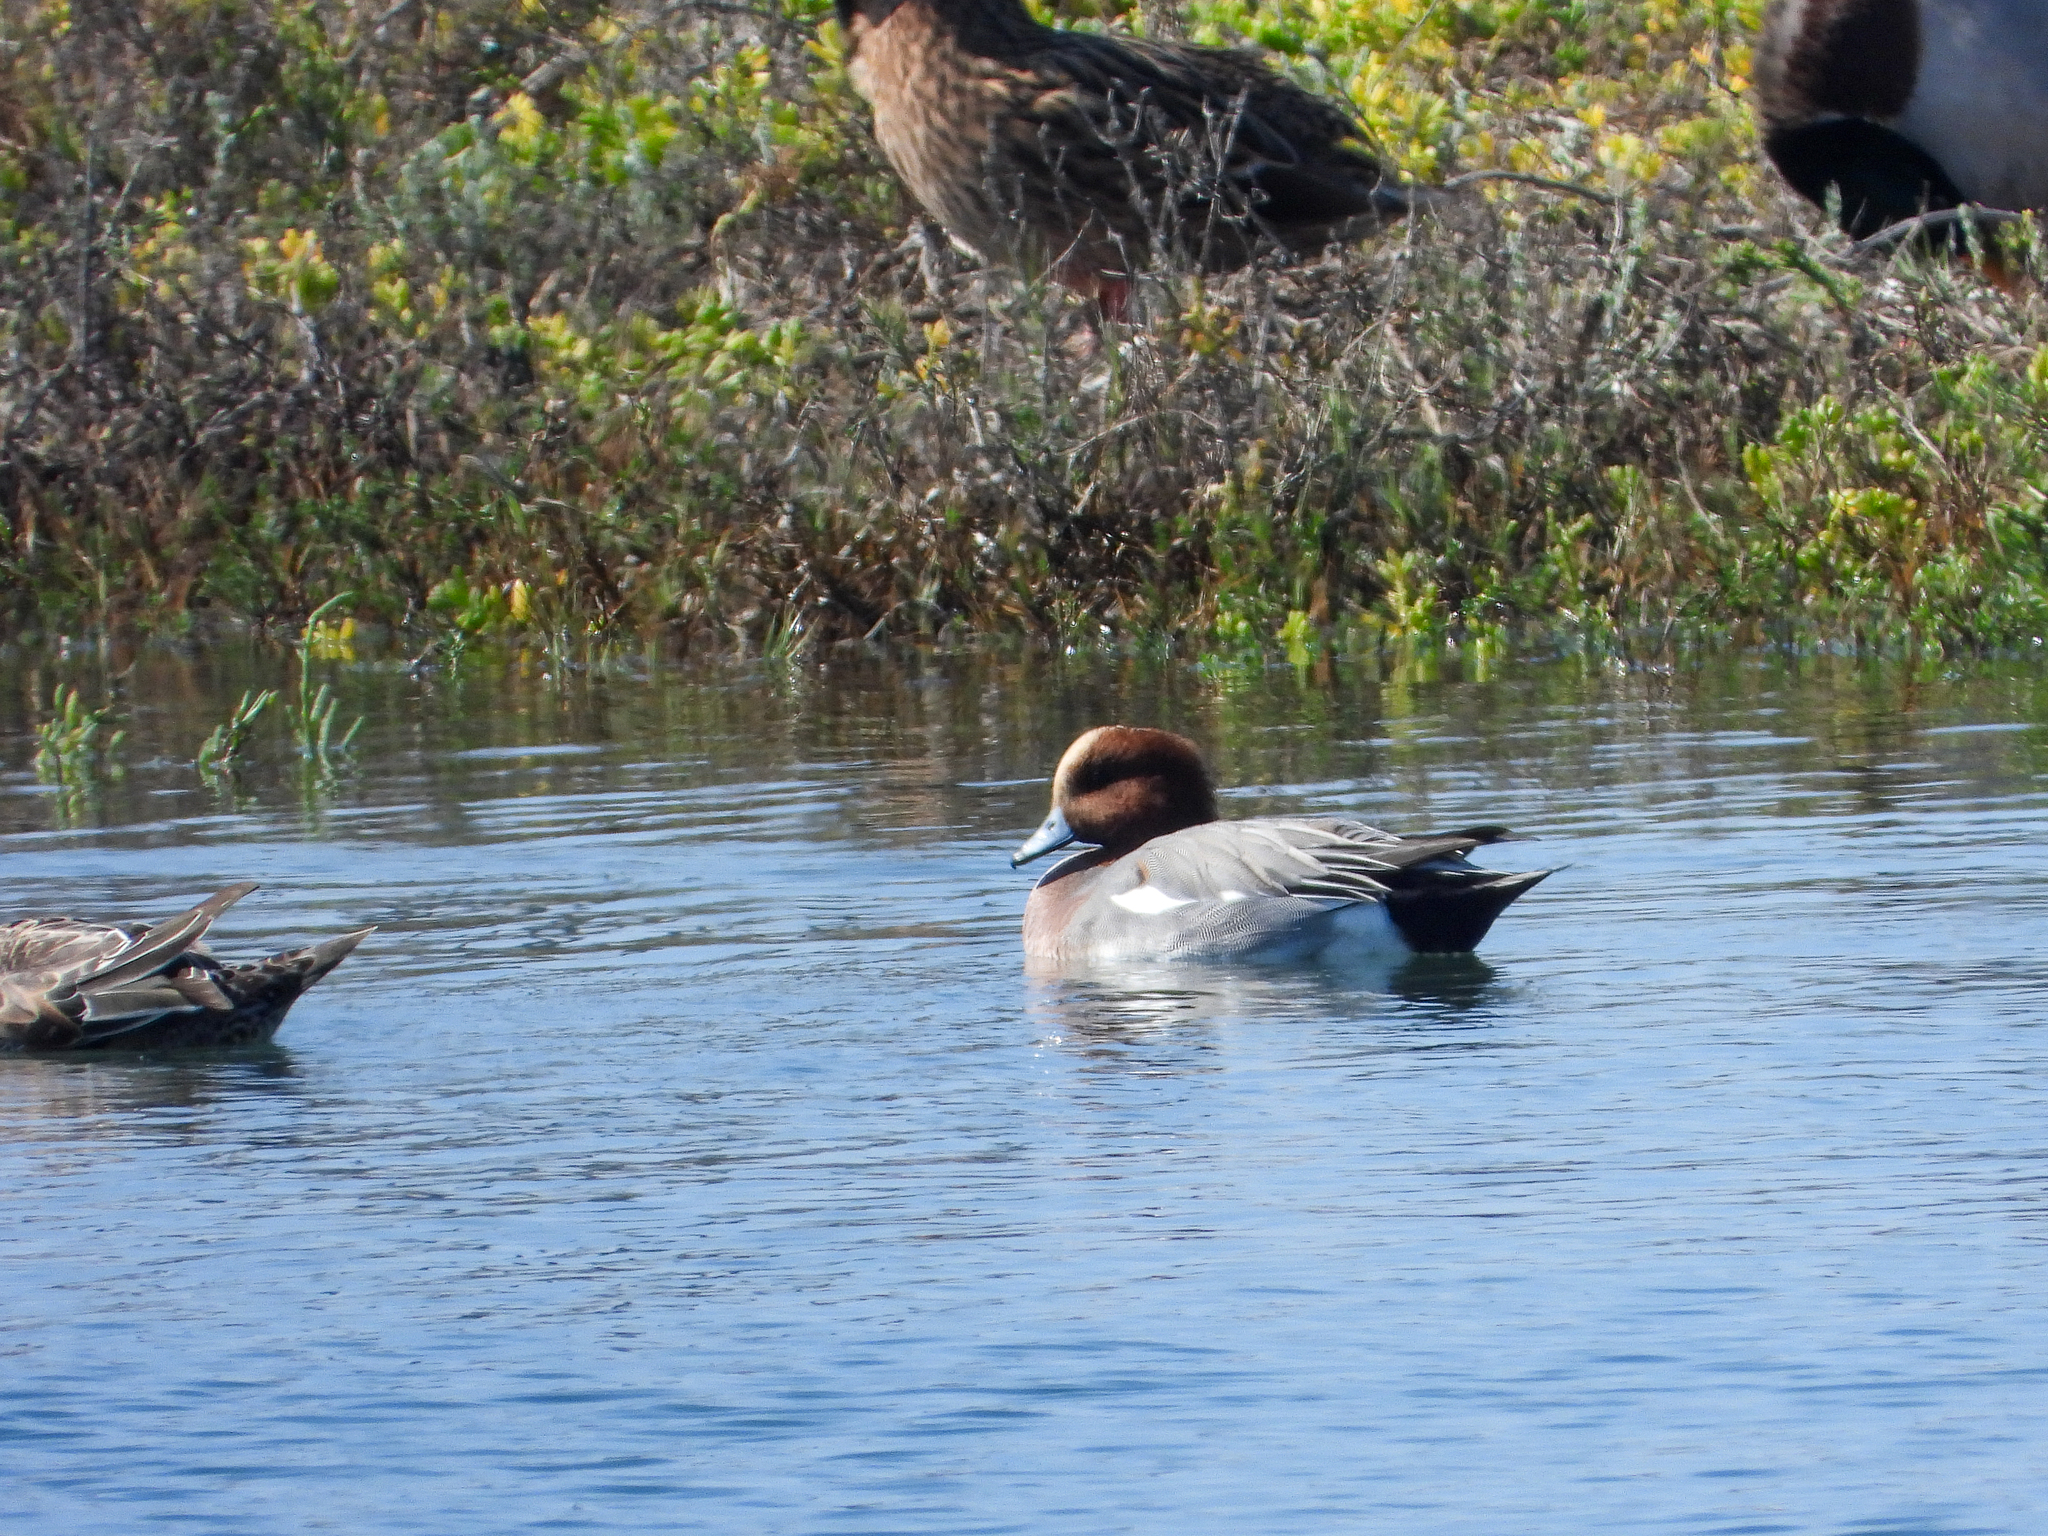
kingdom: Animalia
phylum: Chordata
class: Aves
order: Anseriformes
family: Anatidae
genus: Mareca
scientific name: Mareca penelope
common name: Eurasian wigeon
